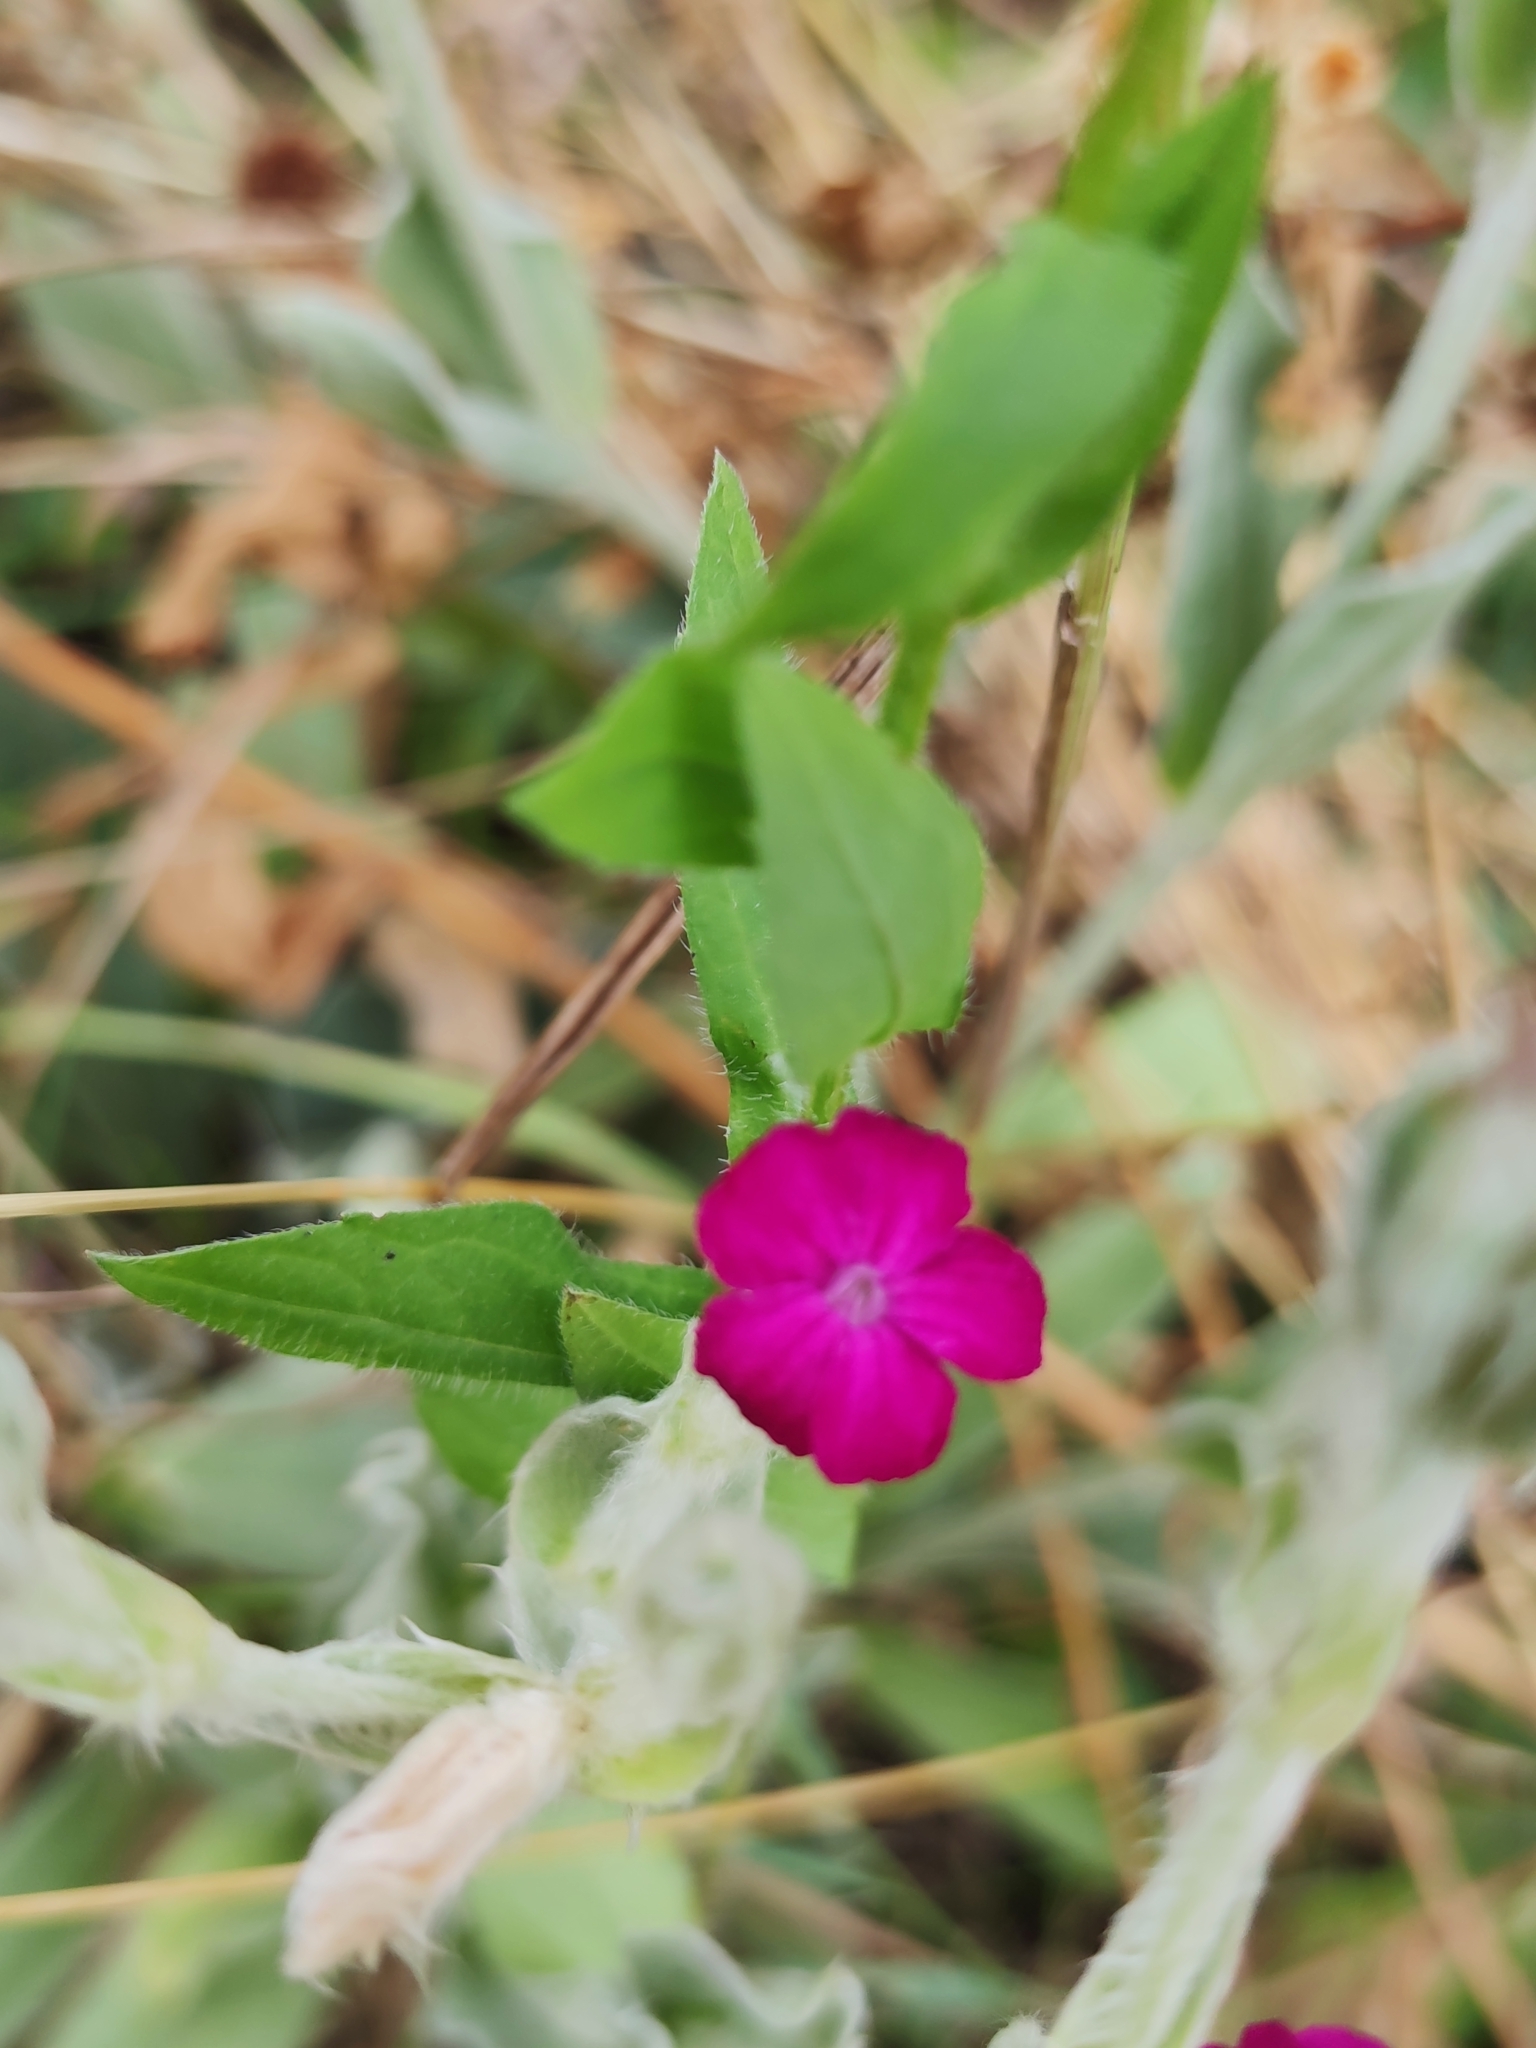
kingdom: Plantae
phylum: Tracheophyta
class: Magnoliopsida
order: Caryophyllales
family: Caryophyllaceae
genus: Silene
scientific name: Silene coronaria
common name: Rose campion
